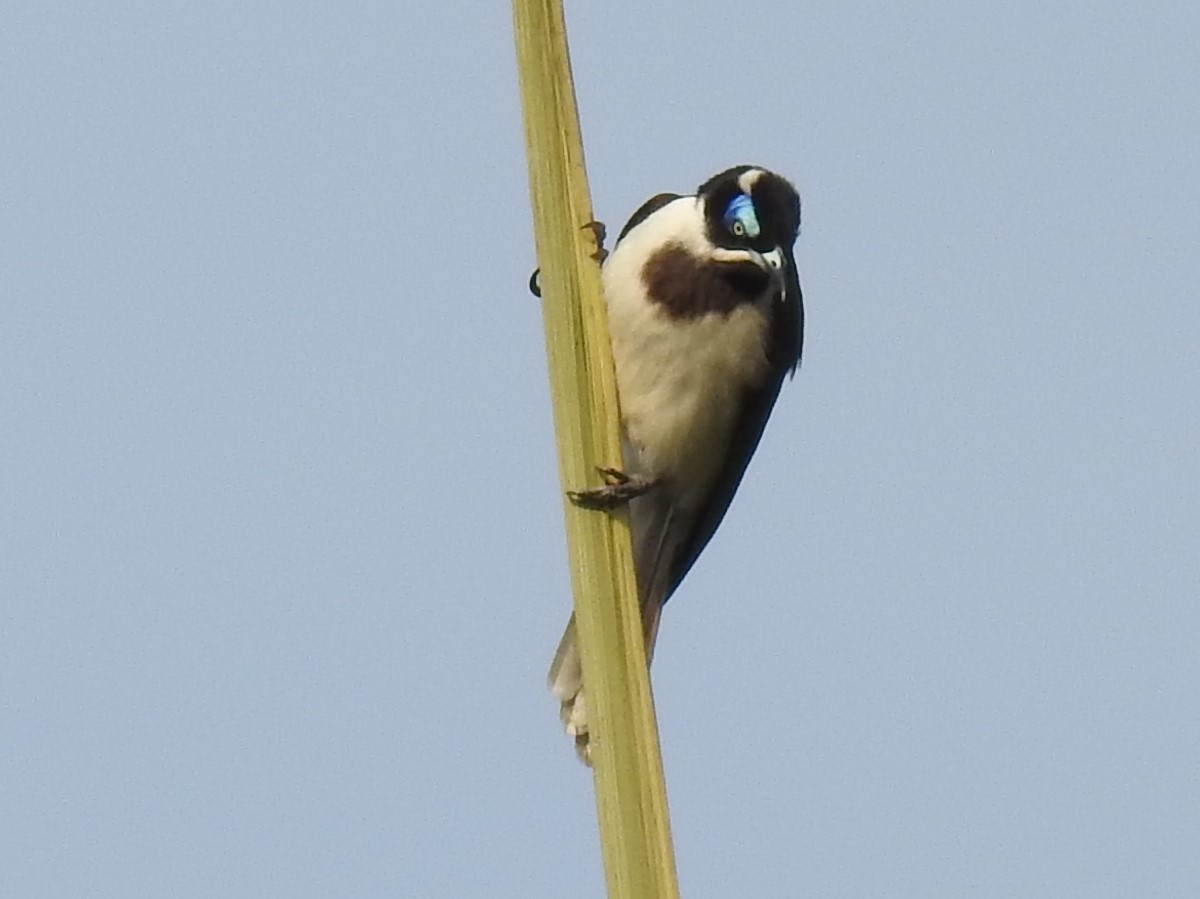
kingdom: Animalia
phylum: Chordata
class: Aves
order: Passeriformes
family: Meliphagidae
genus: Entomyzon
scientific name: Entomyzon cyanotis
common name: Blue-faced honeyeater
